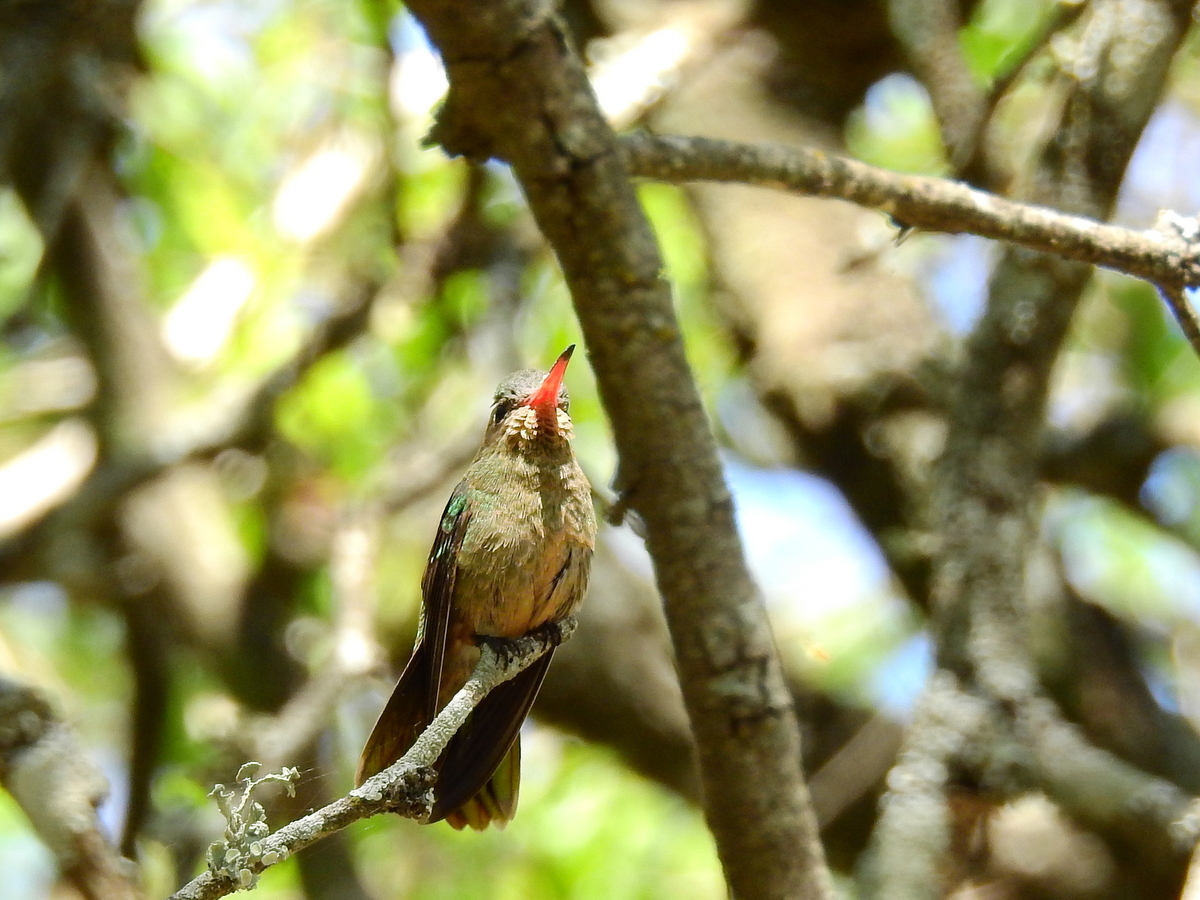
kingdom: Animalia
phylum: Chordata
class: Aves
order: Apodiformes
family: Trochilidae
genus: Hylocharis
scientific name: Hylocharis chrysura
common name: Gilded sapphire
